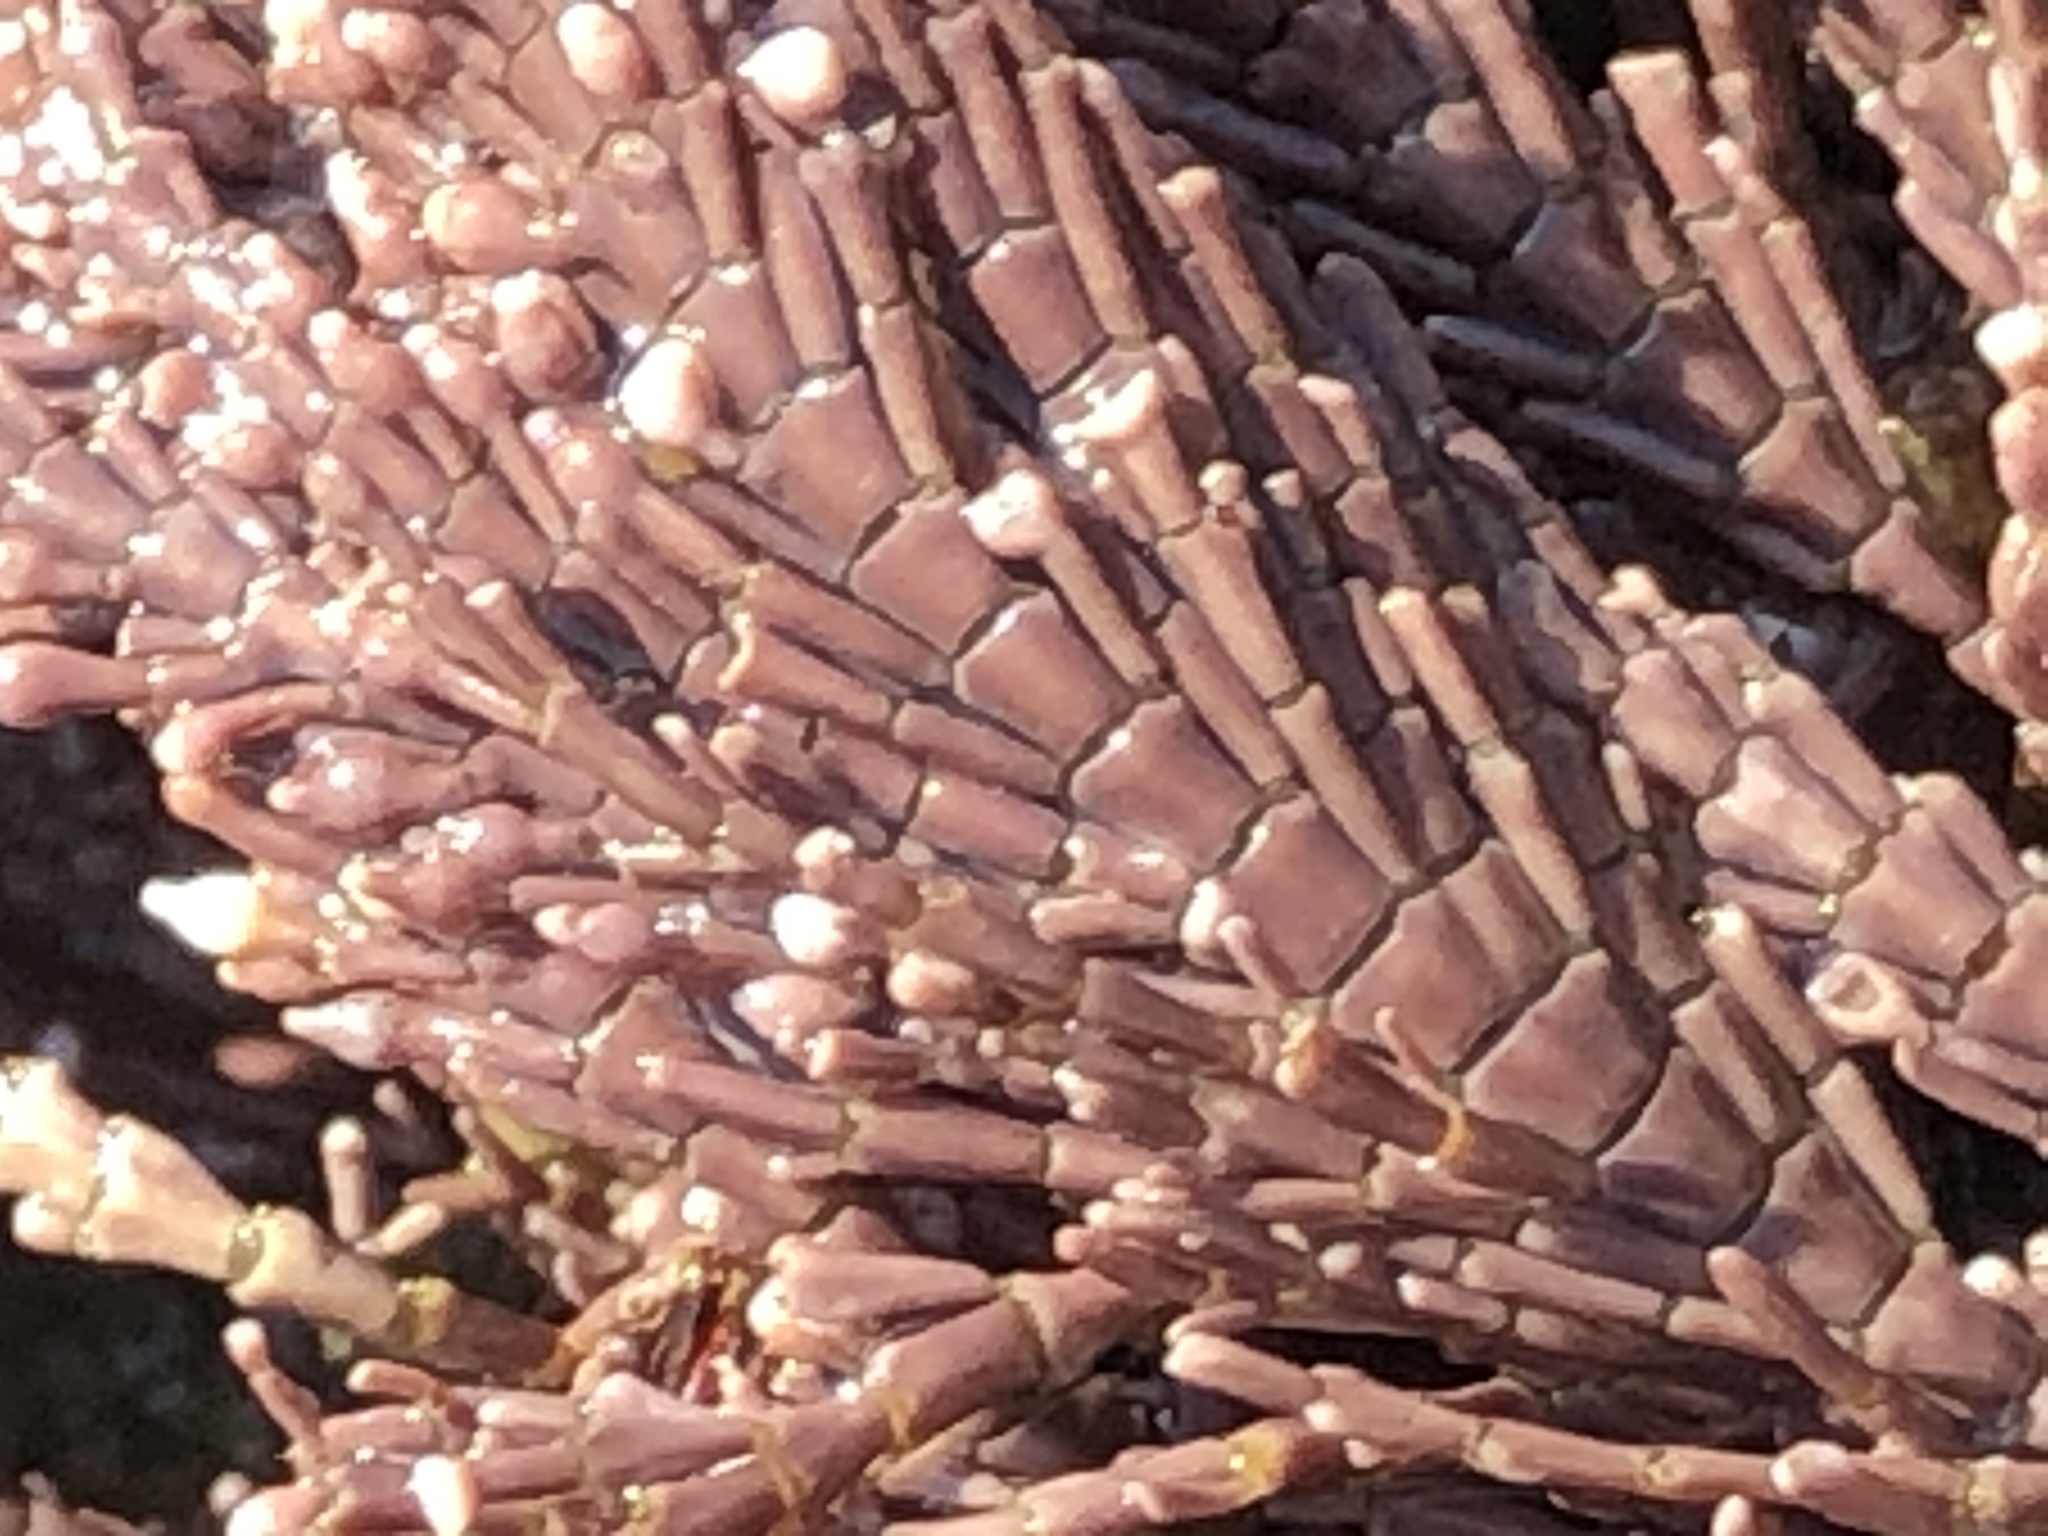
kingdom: Plantae
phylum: Rhodophyta
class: Florideophyceae
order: Corallinales
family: Corallinaceae
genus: Corallina
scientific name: Corallina vancouveriensis
